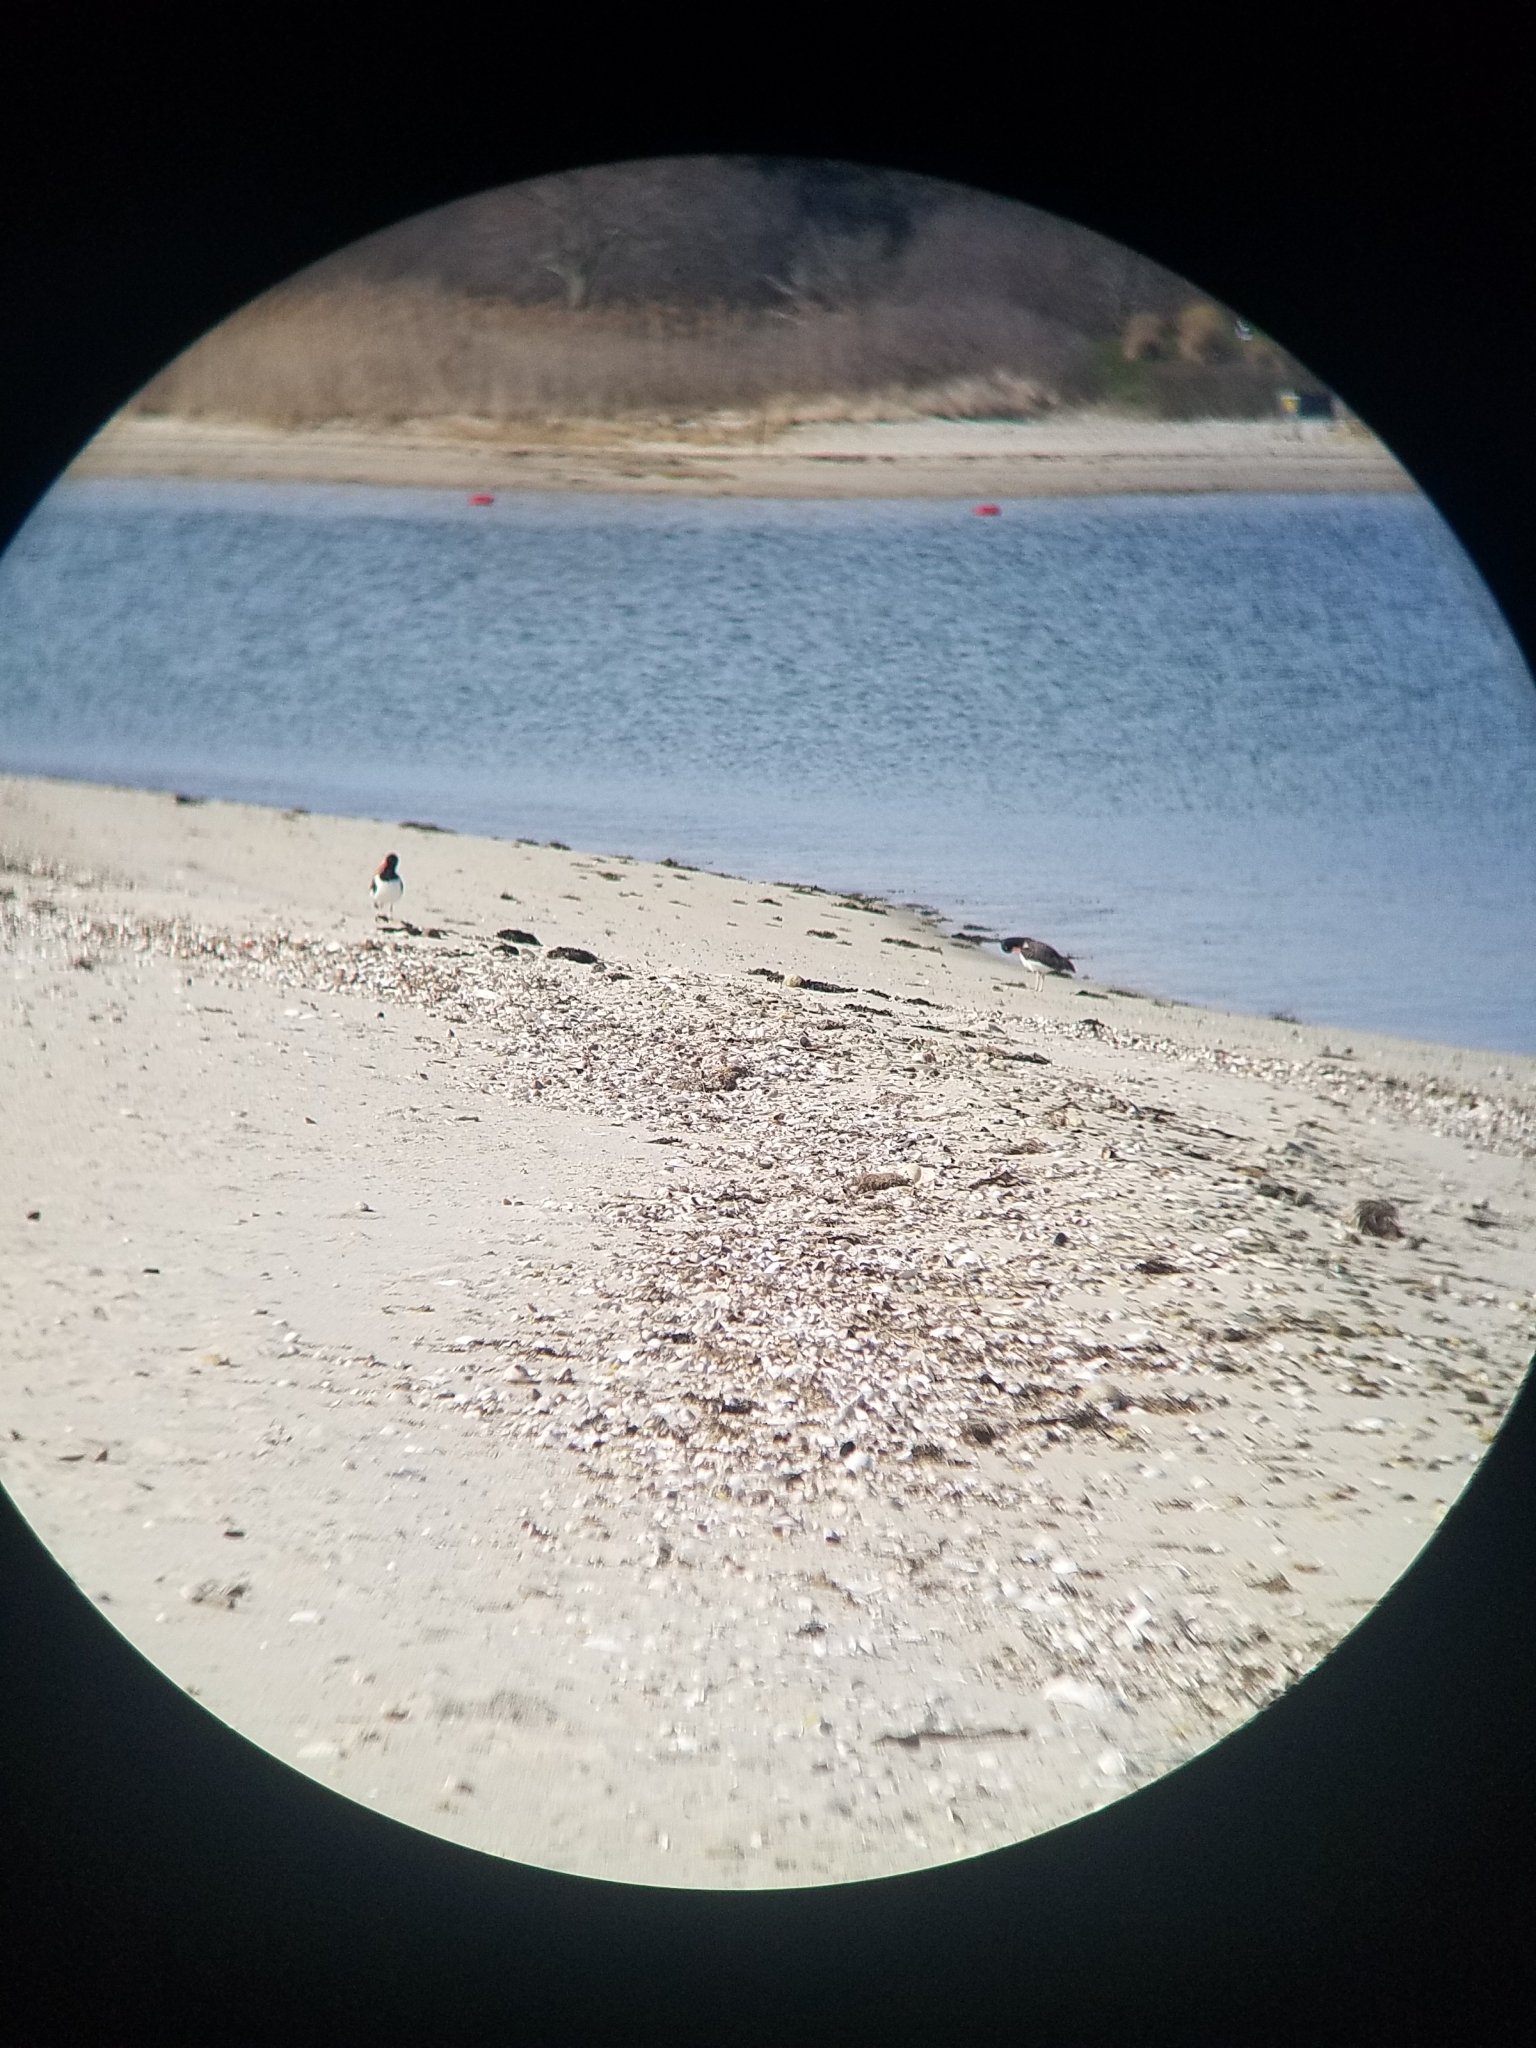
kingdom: Animalia
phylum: Chordata
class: Aves
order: Charadriiformes
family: Haematopodidae
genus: Haematopus
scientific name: Haematopus palliatus
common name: American oystercatcher
